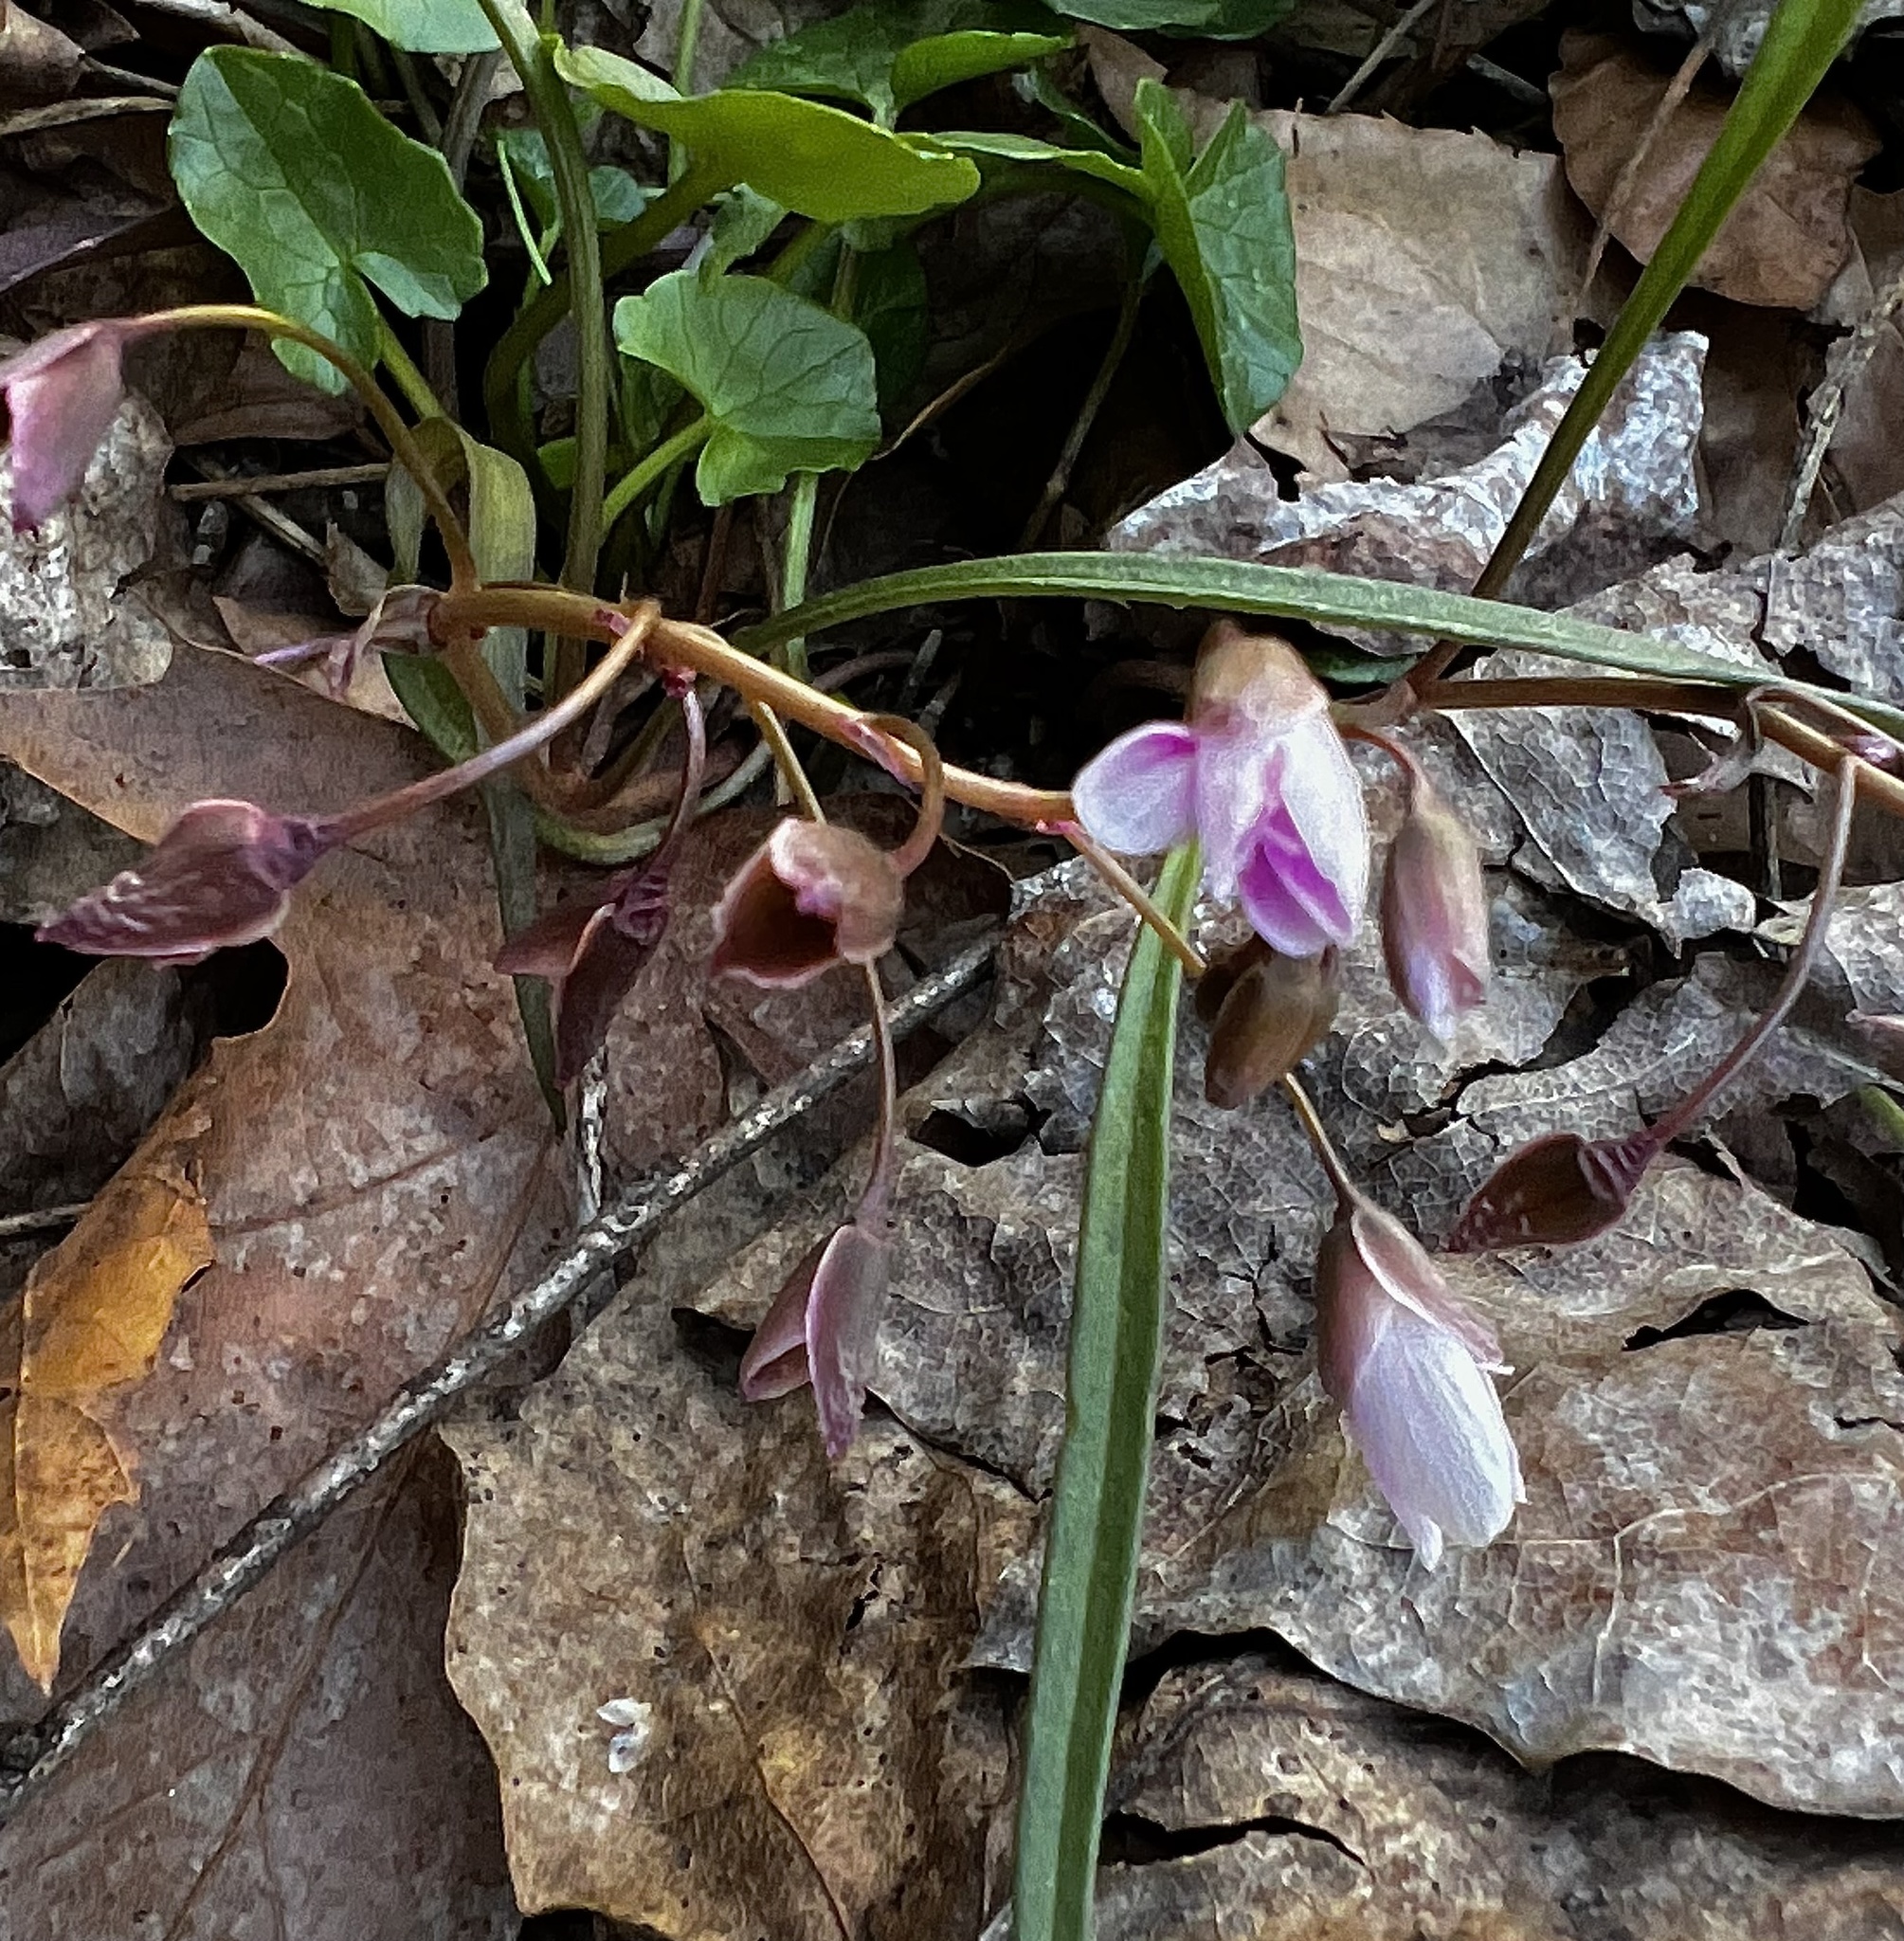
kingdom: Plantae
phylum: Tracheophyta
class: Magnoliopsida
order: Caryophyllales
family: Montiaceae
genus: Claytonia
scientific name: Claytonia virginica
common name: Virginia springbeauty
